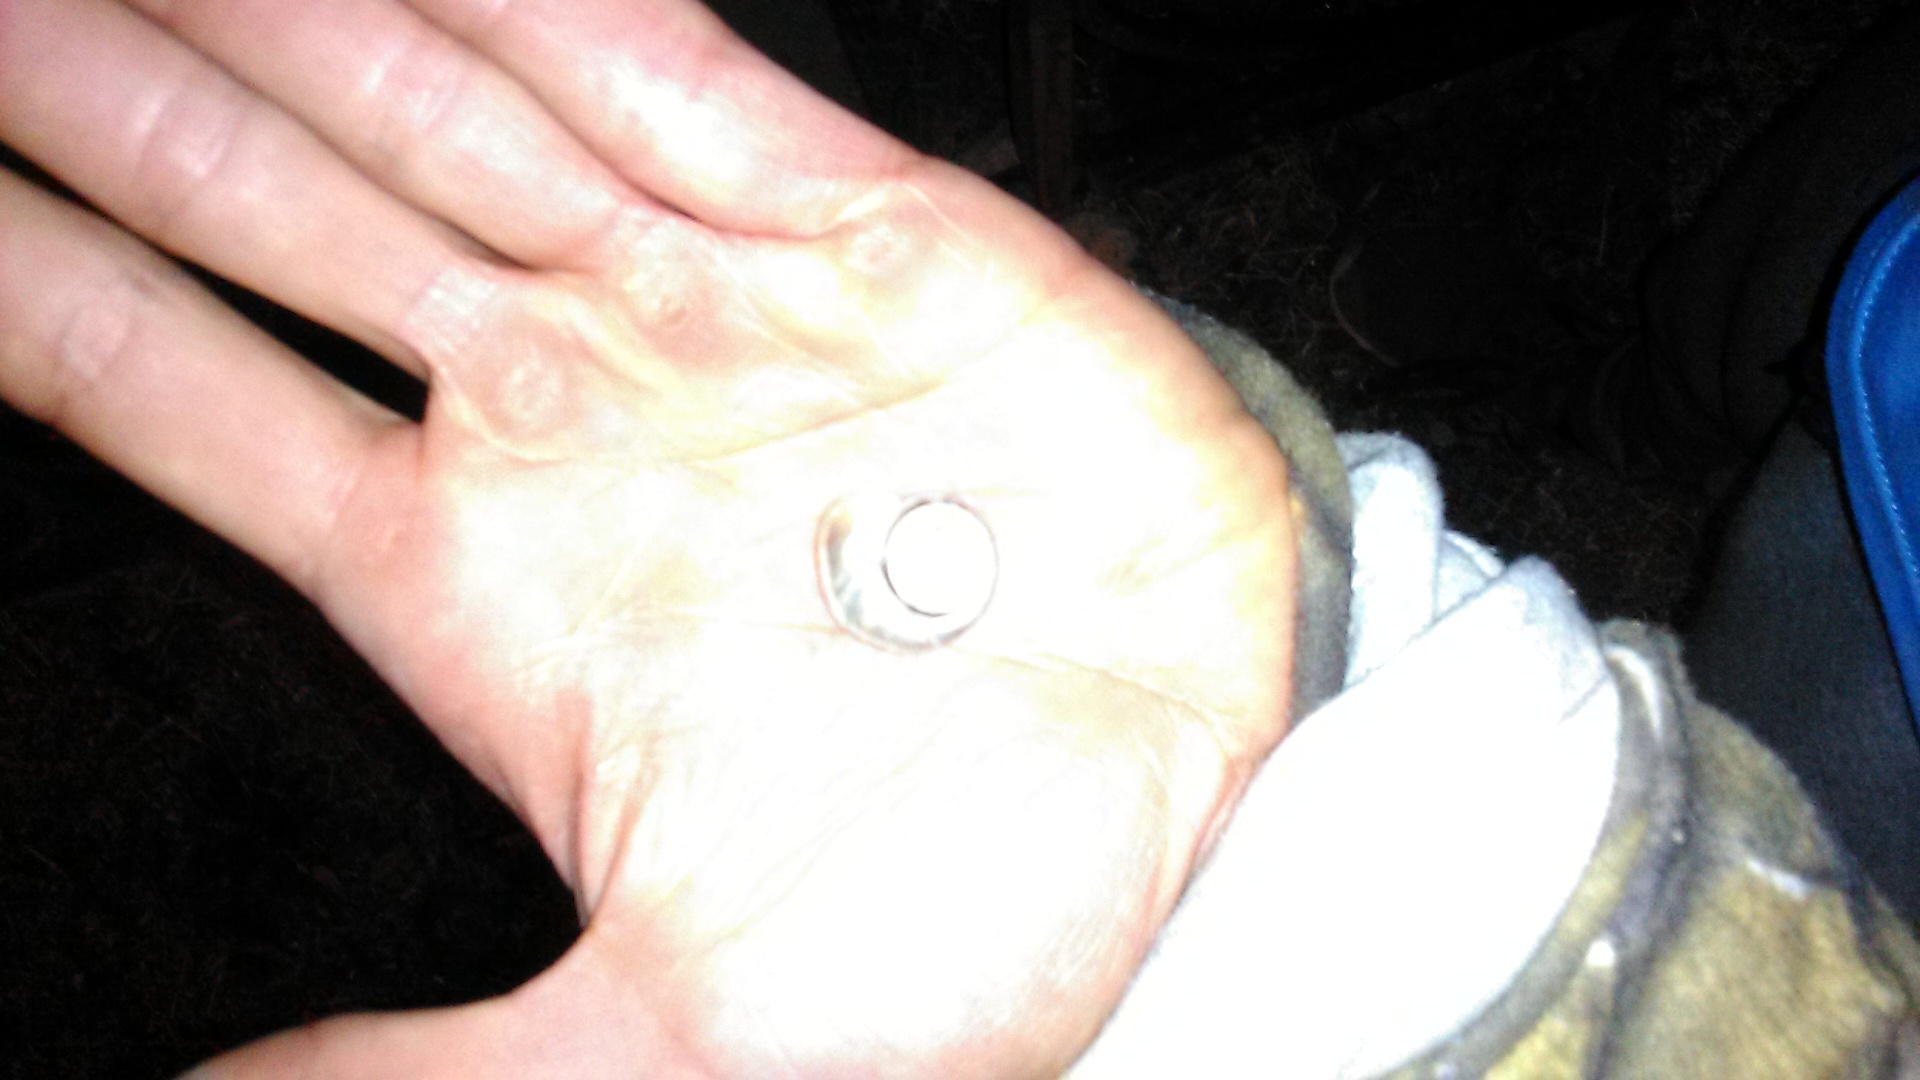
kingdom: Animalia
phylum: Mollusca
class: Gastropoda
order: Stylommatophora
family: Geomitridae
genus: Xeropicta
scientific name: Xeropicta derbentina
